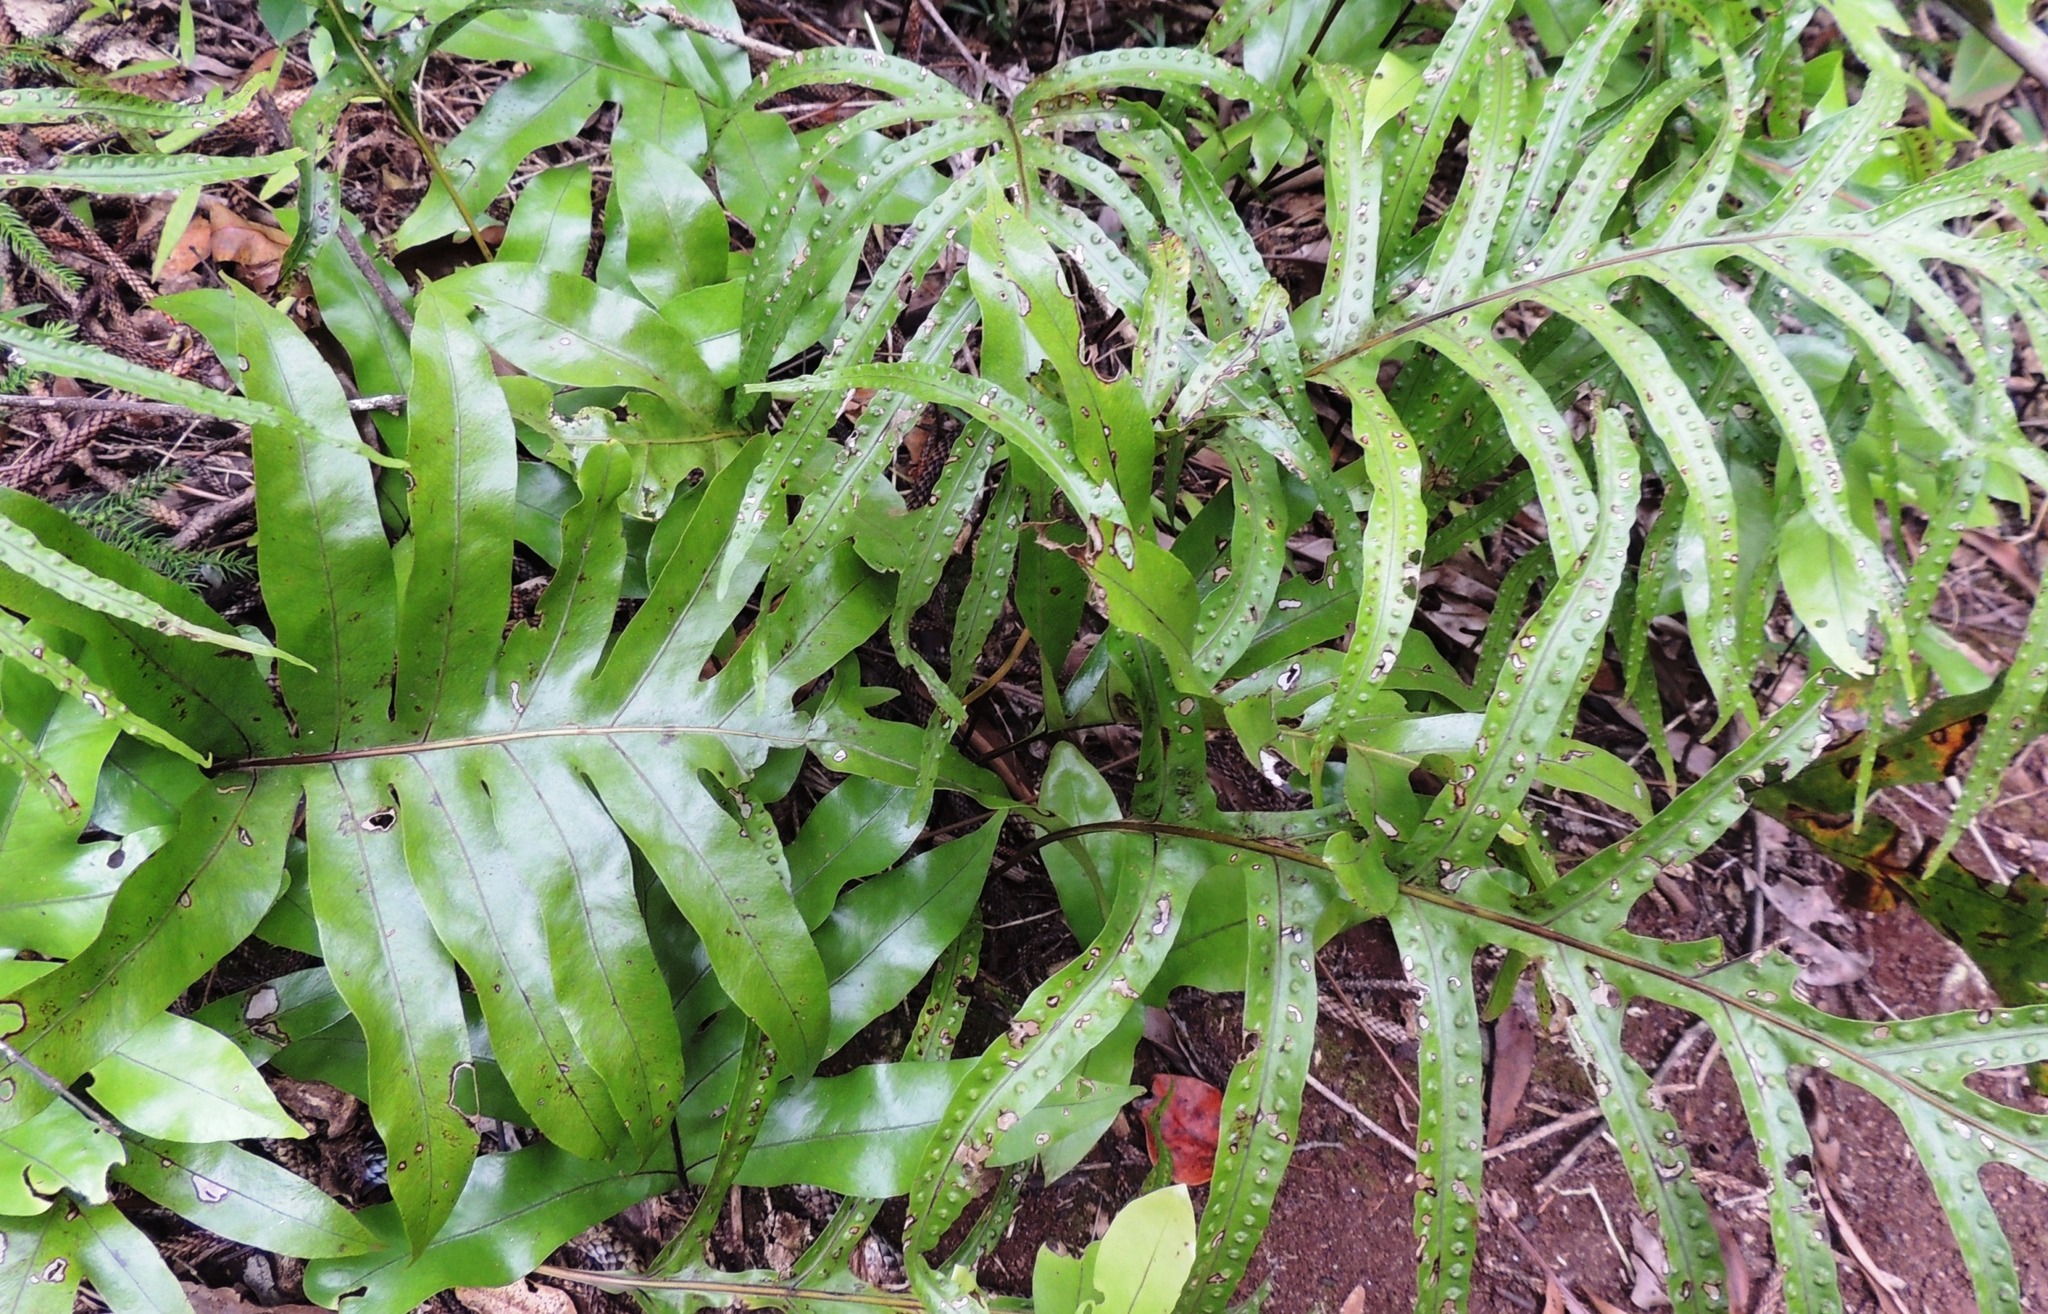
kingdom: Plantae
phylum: Tracheophyta
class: Polypodiopsida
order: Polypodiales
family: Polypodiaceae
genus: Lecanopteris
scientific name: Lecanopteris pustulata
